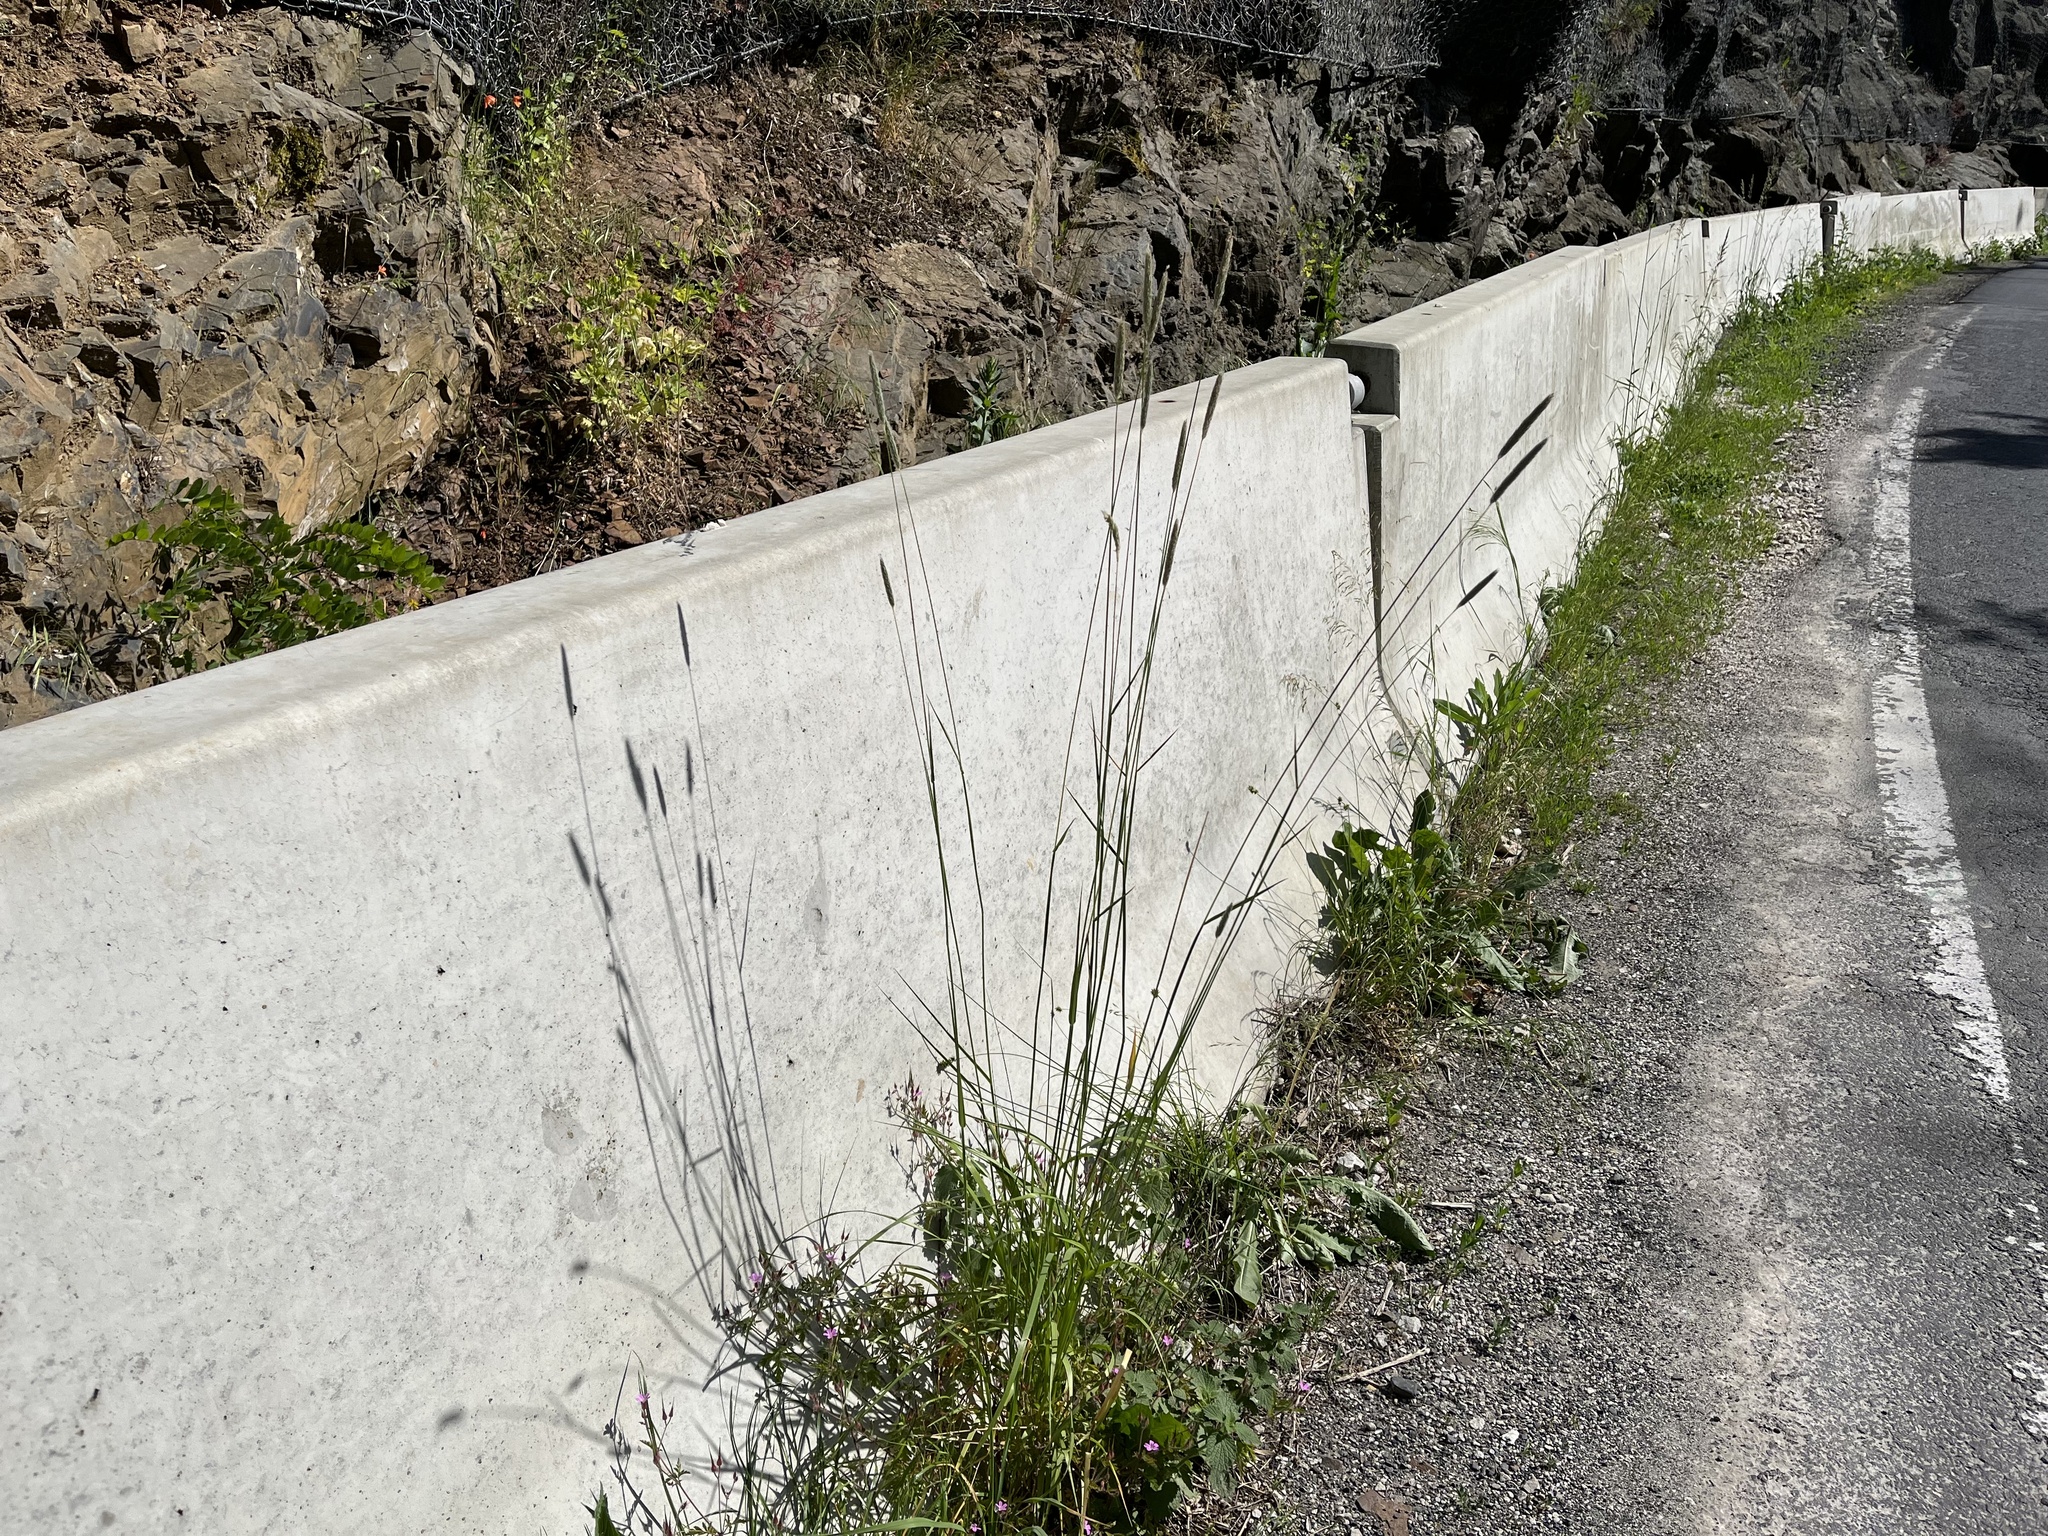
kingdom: Plantae
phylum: Tracheophyta
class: Liliopsida
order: Poales
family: Poaceae
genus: Alopecurus
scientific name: Alopecurus pratensis
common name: Meadow foxtail
